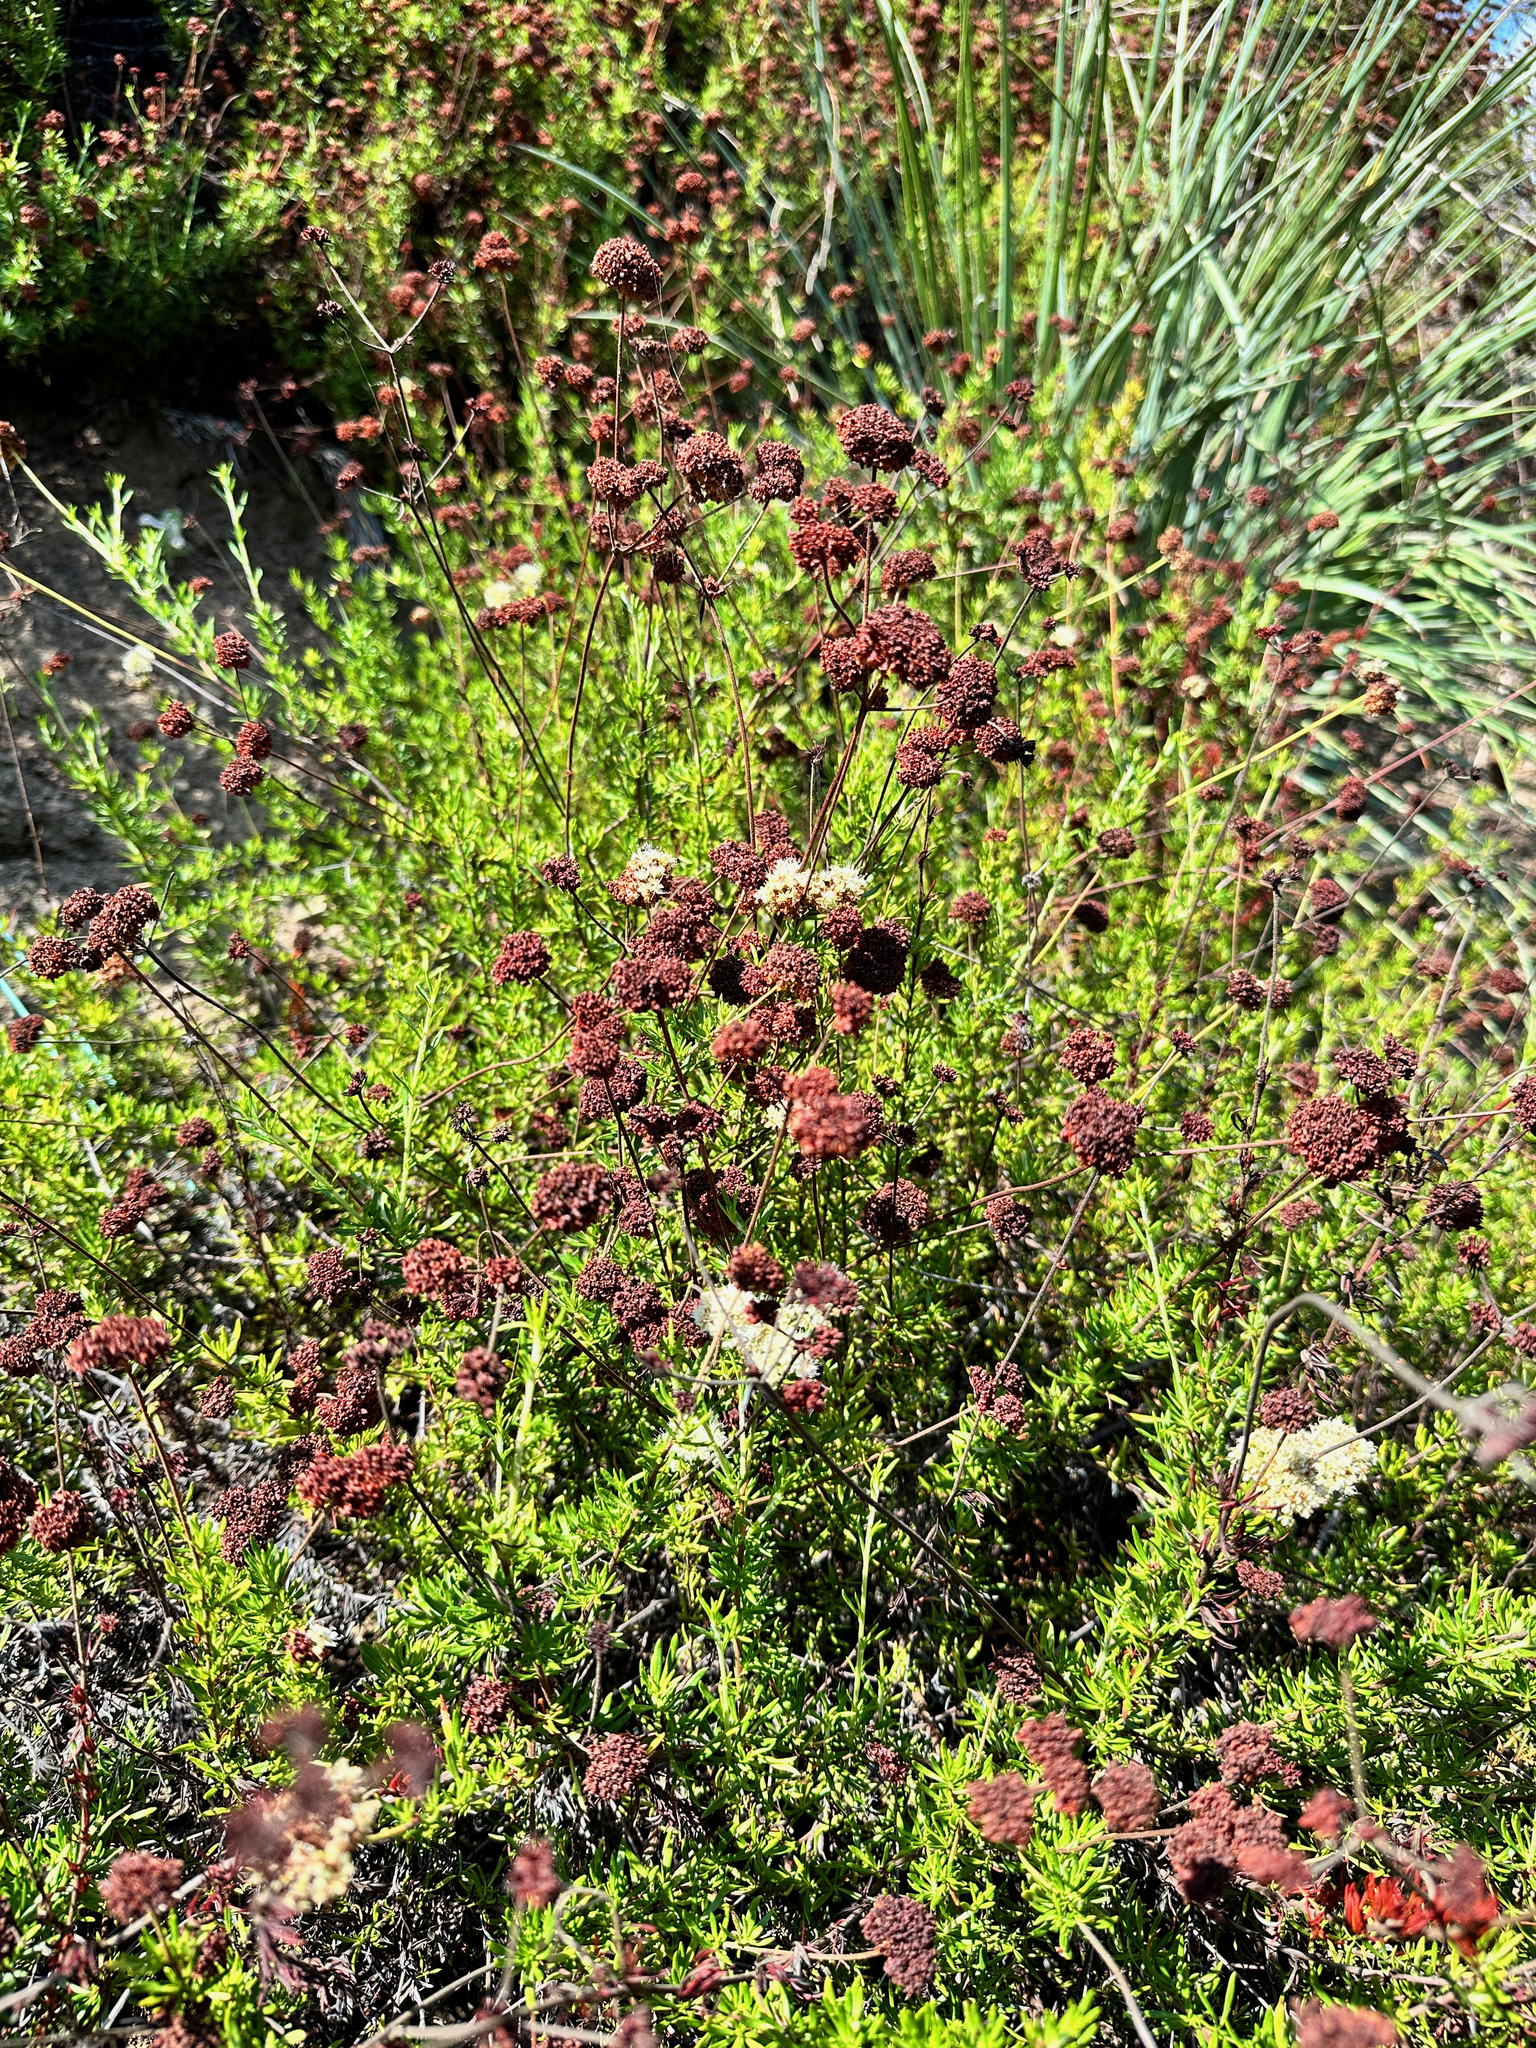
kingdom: Plantae
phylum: Tracheophyta
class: Magnoliopsida
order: Caryophyllales
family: Polygonaceae
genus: Eriogonum
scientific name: Eriogonum fasciculatum
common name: California wild buckwheat
